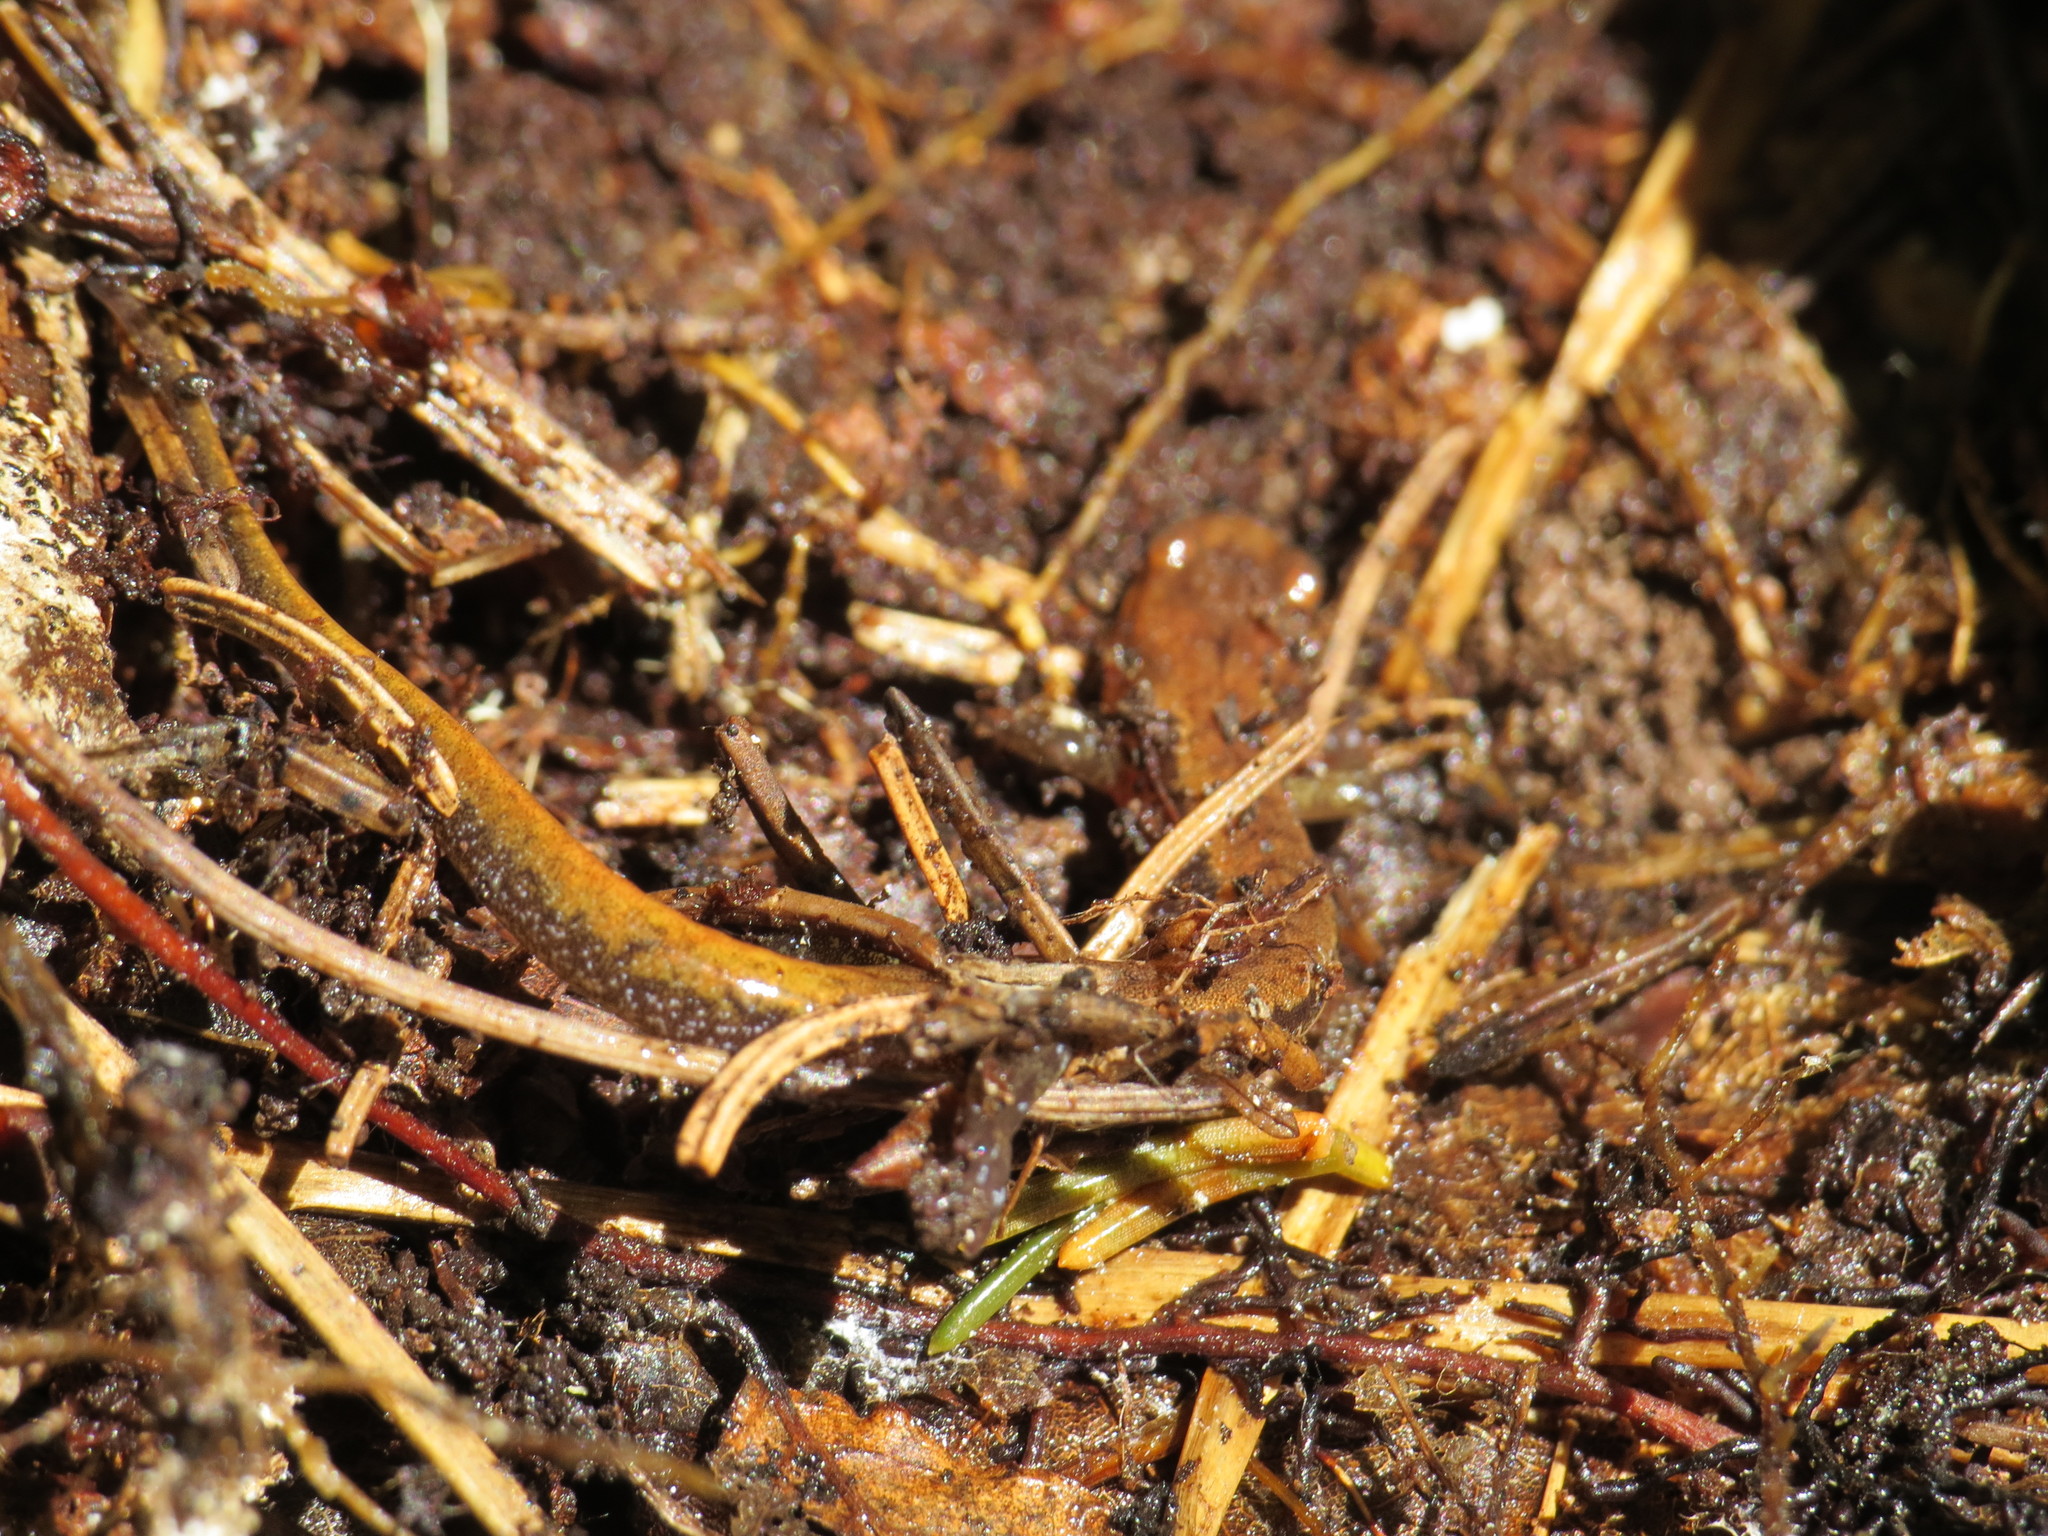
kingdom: Animalia
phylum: Chordata
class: Amphibia
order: Caudata
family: Plethodontidae
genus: Desmognathus
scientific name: Desmognathus ochrophaeus
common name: Allegheny mountain dusky salamander
